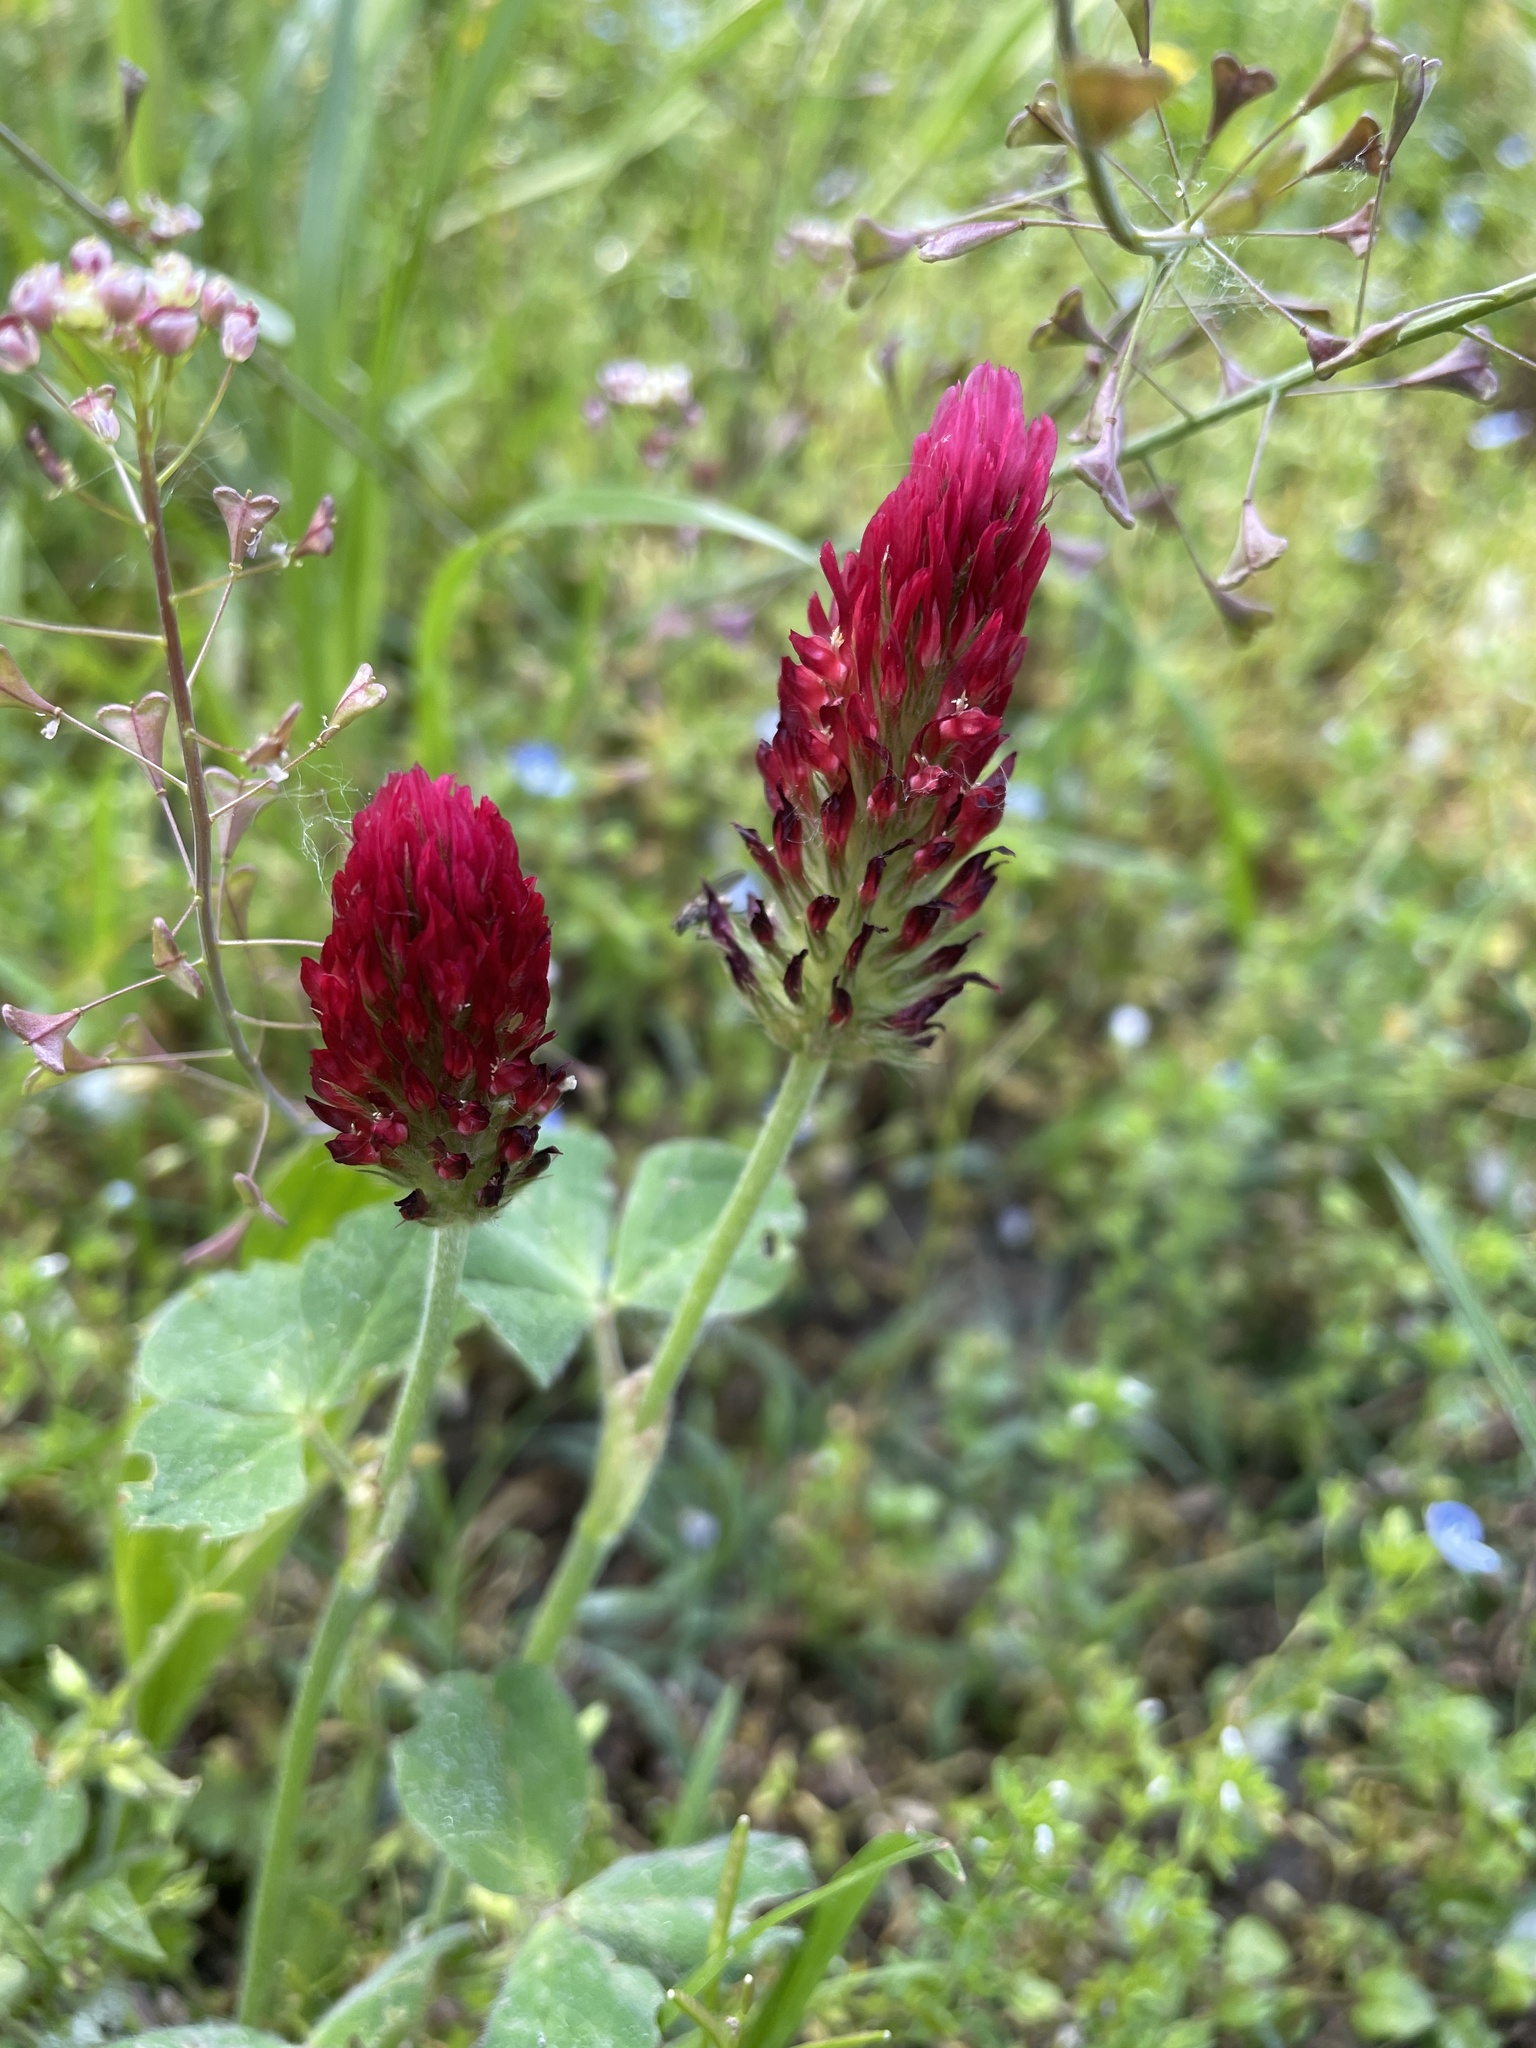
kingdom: Plantae
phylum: Tracheophyta
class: Magnoliopsida
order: Fabales
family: Fabaceae
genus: Trifolium
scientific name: Trifolium incarnatum
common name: Crimson clover
